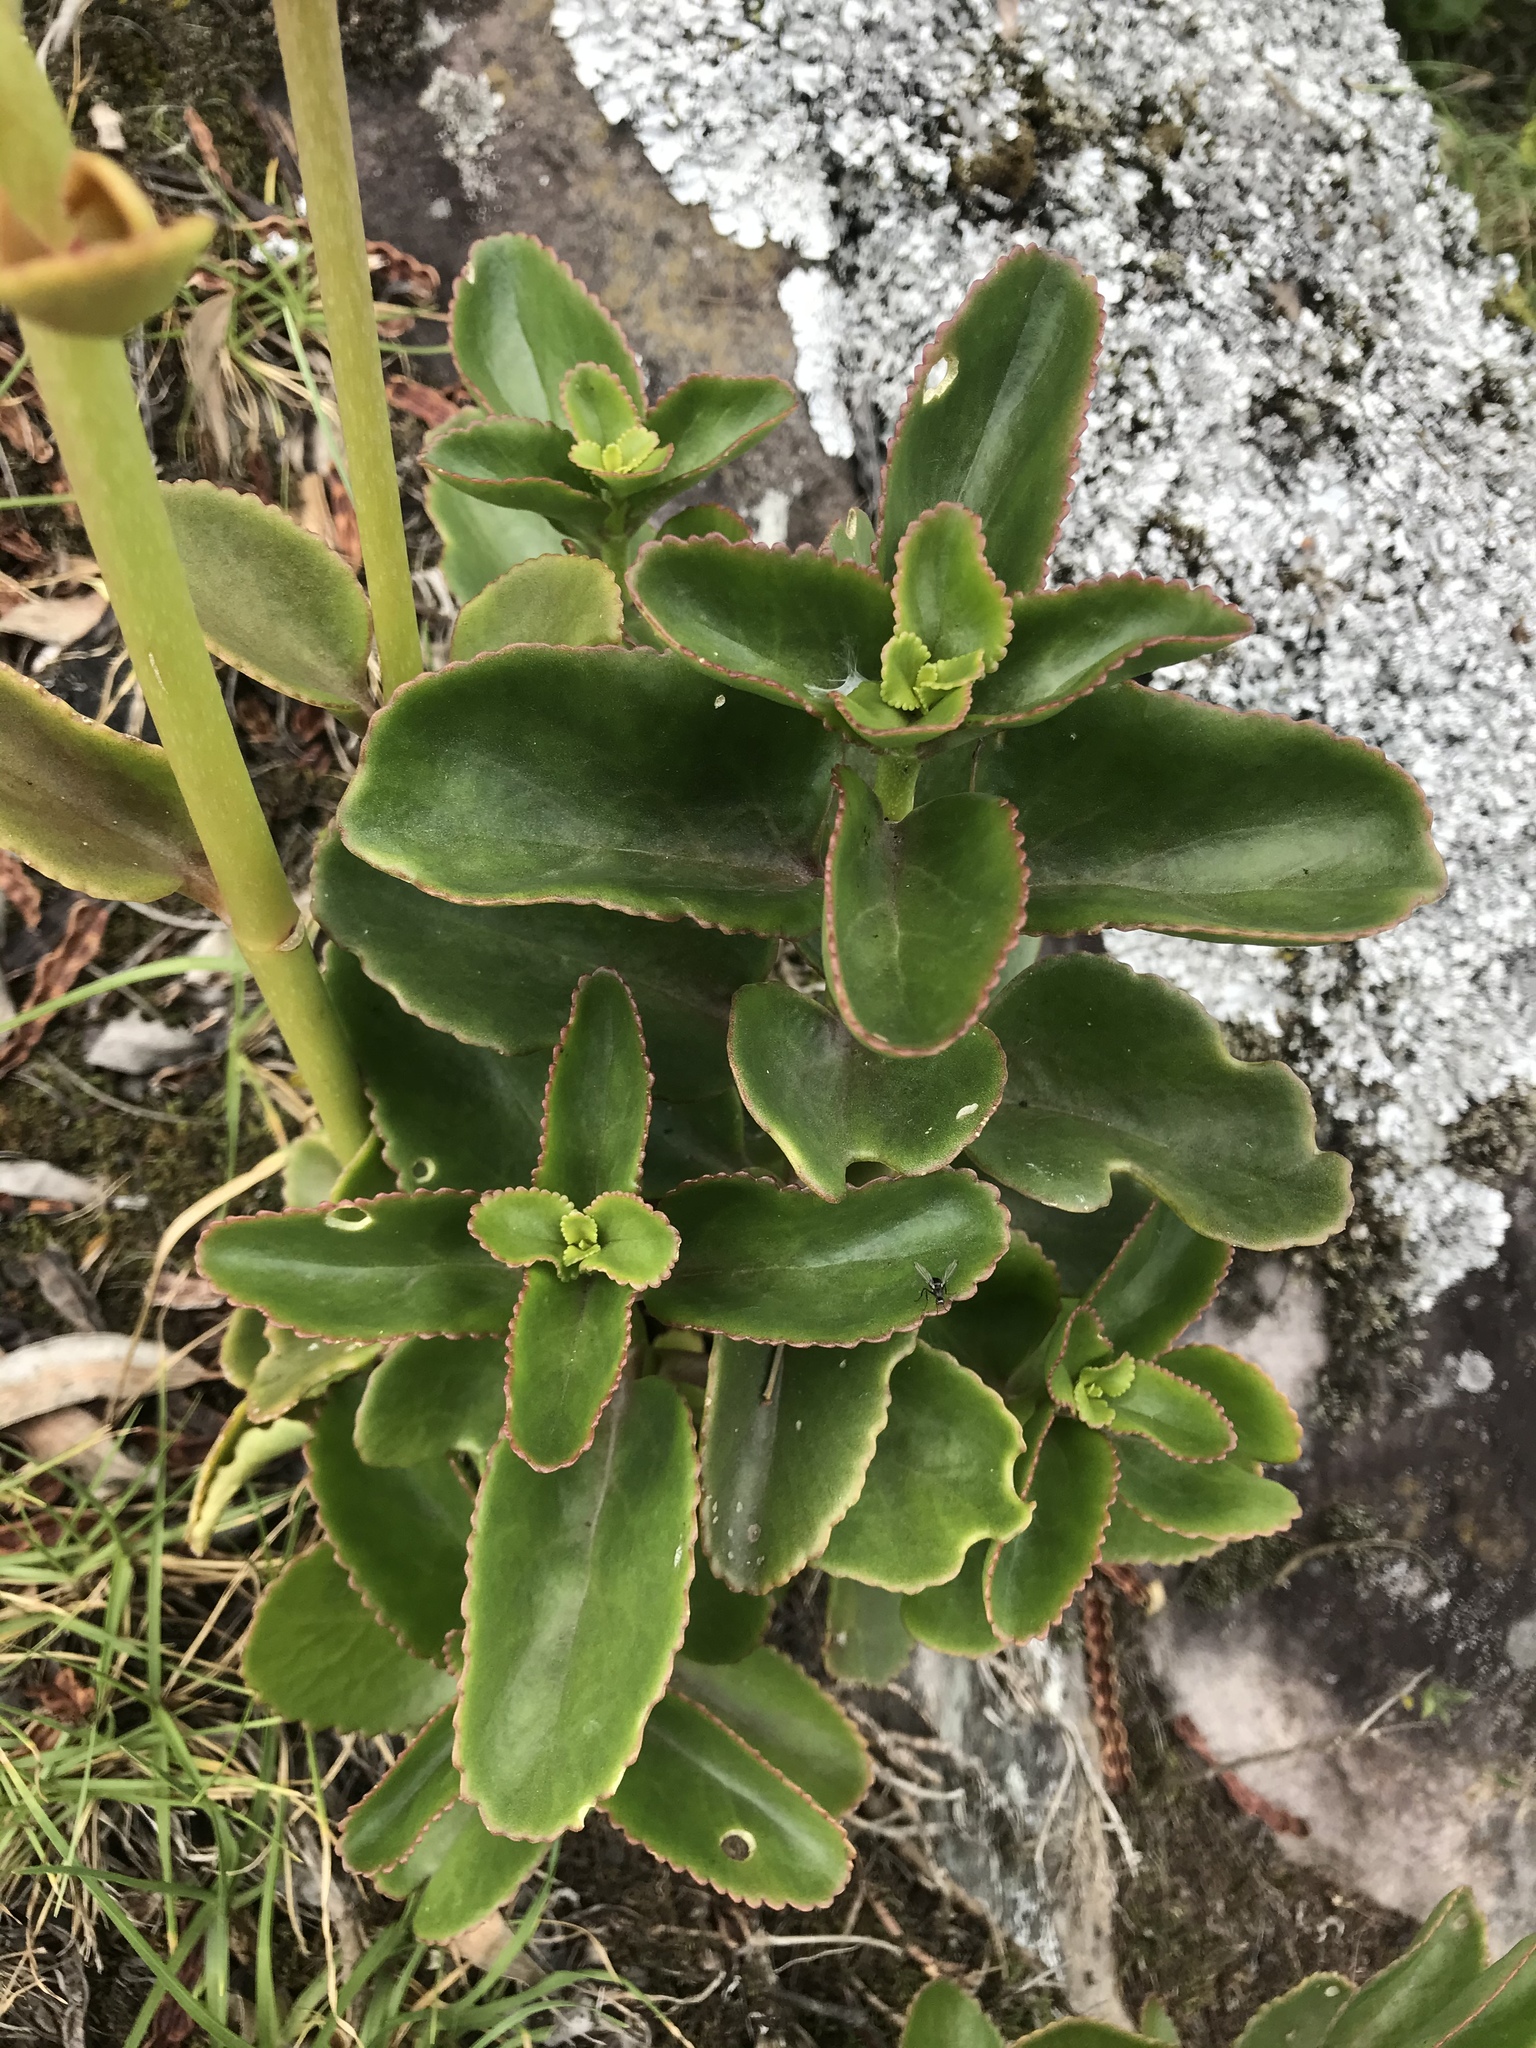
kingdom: Plantae
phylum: Tracheophyta
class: Magnoliopsida
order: Saxifragales
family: Crassulaceae
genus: Kalanchoe
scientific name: Kalanchoe densiflora
